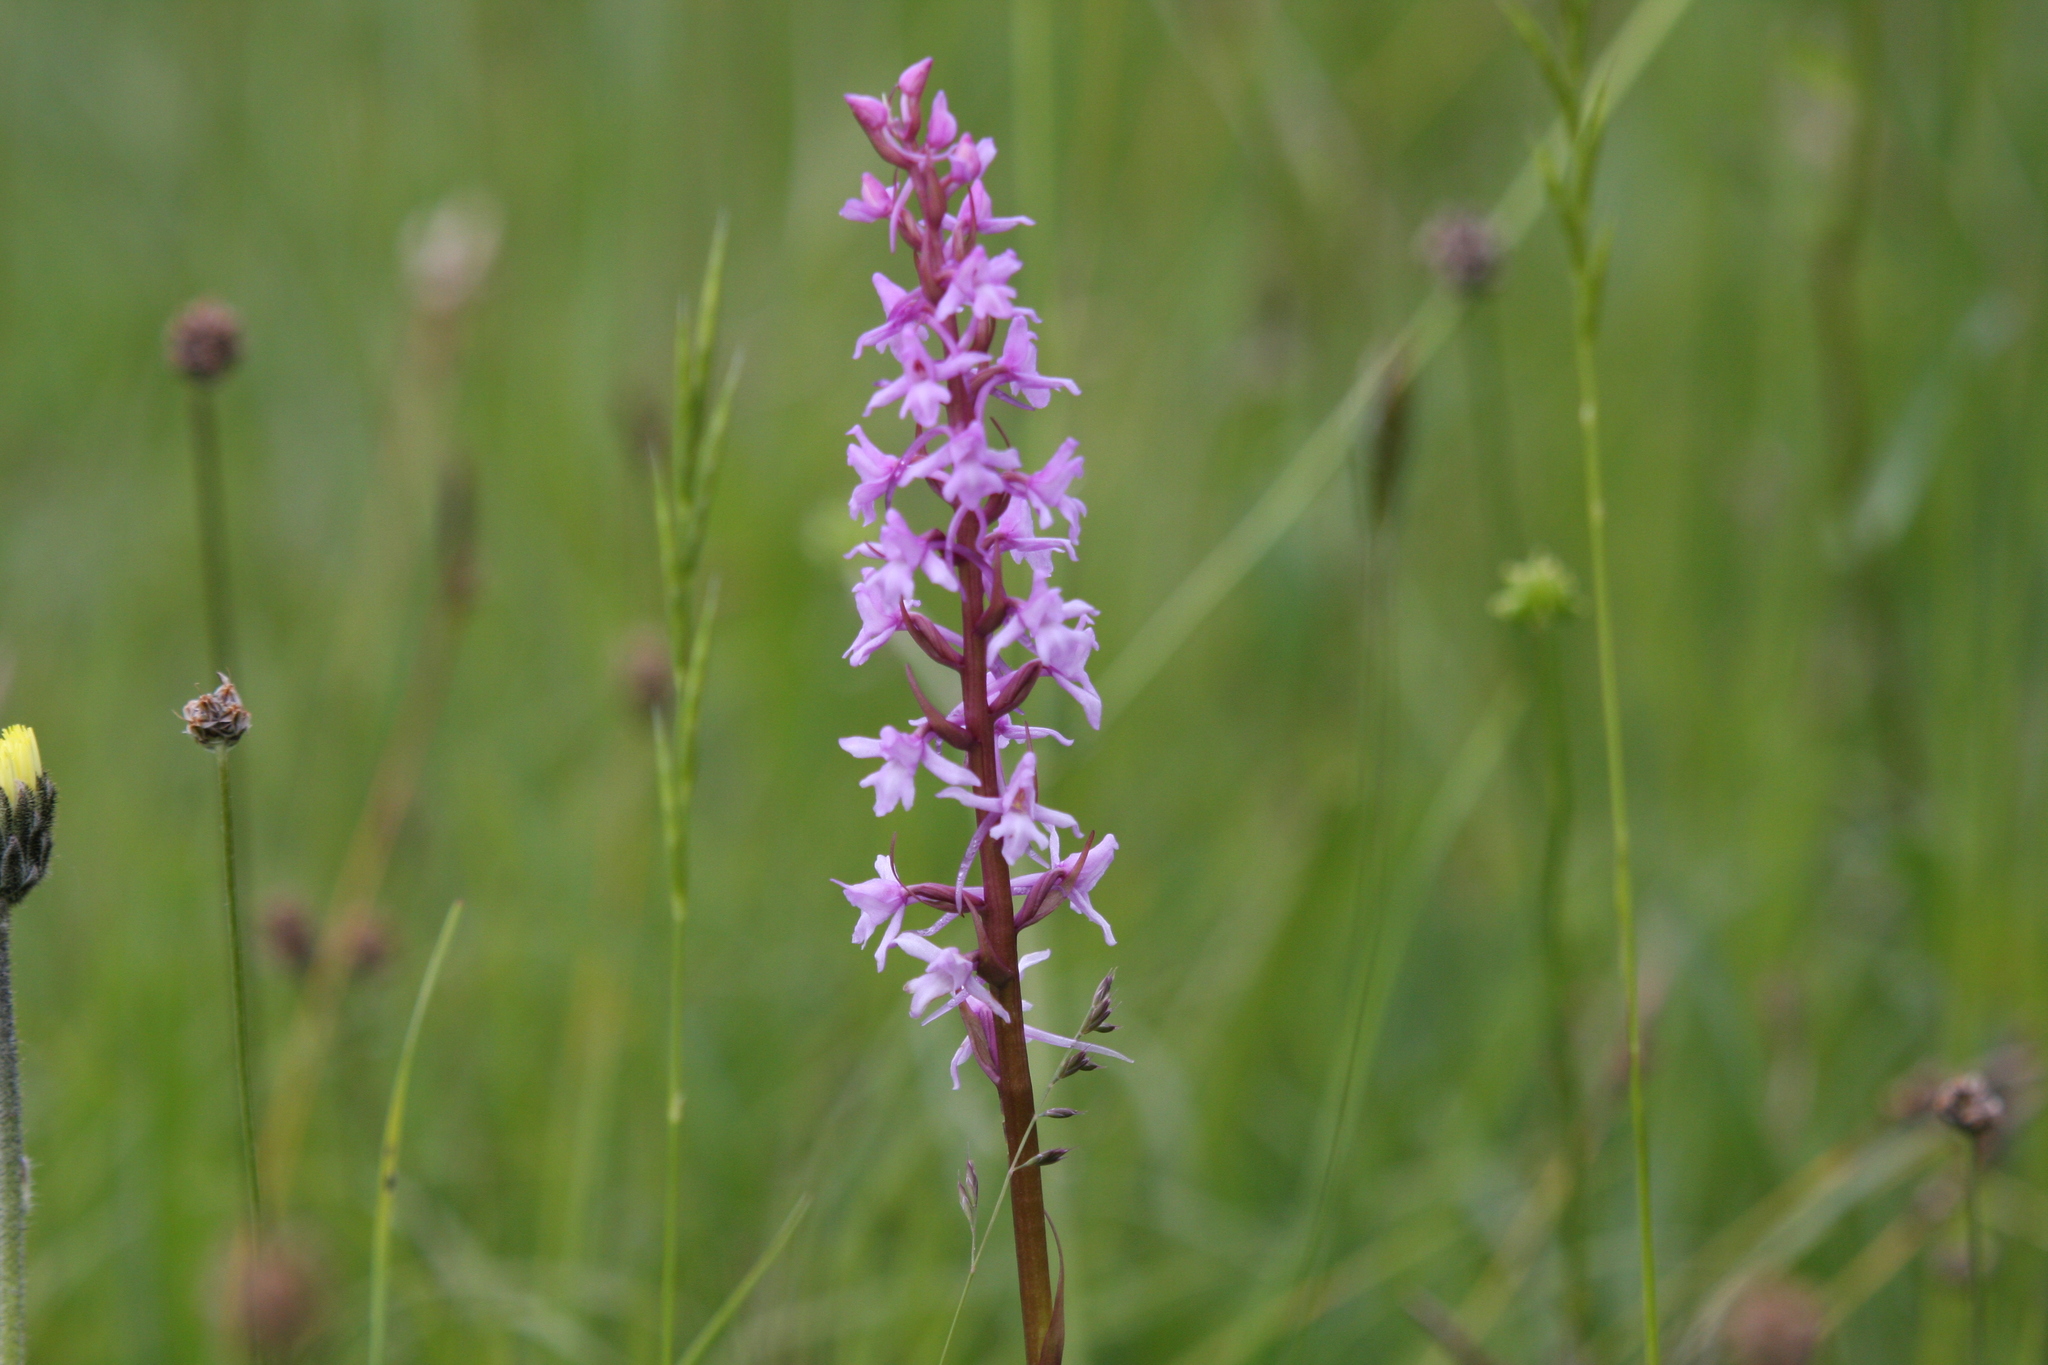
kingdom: Plantae
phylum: Tracheophyta
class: Liliopsida
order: Asparagales
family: Orchidaceae
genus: Gymnadenia
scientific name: Gymnadenia conopsea
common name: Fragrant orchid
